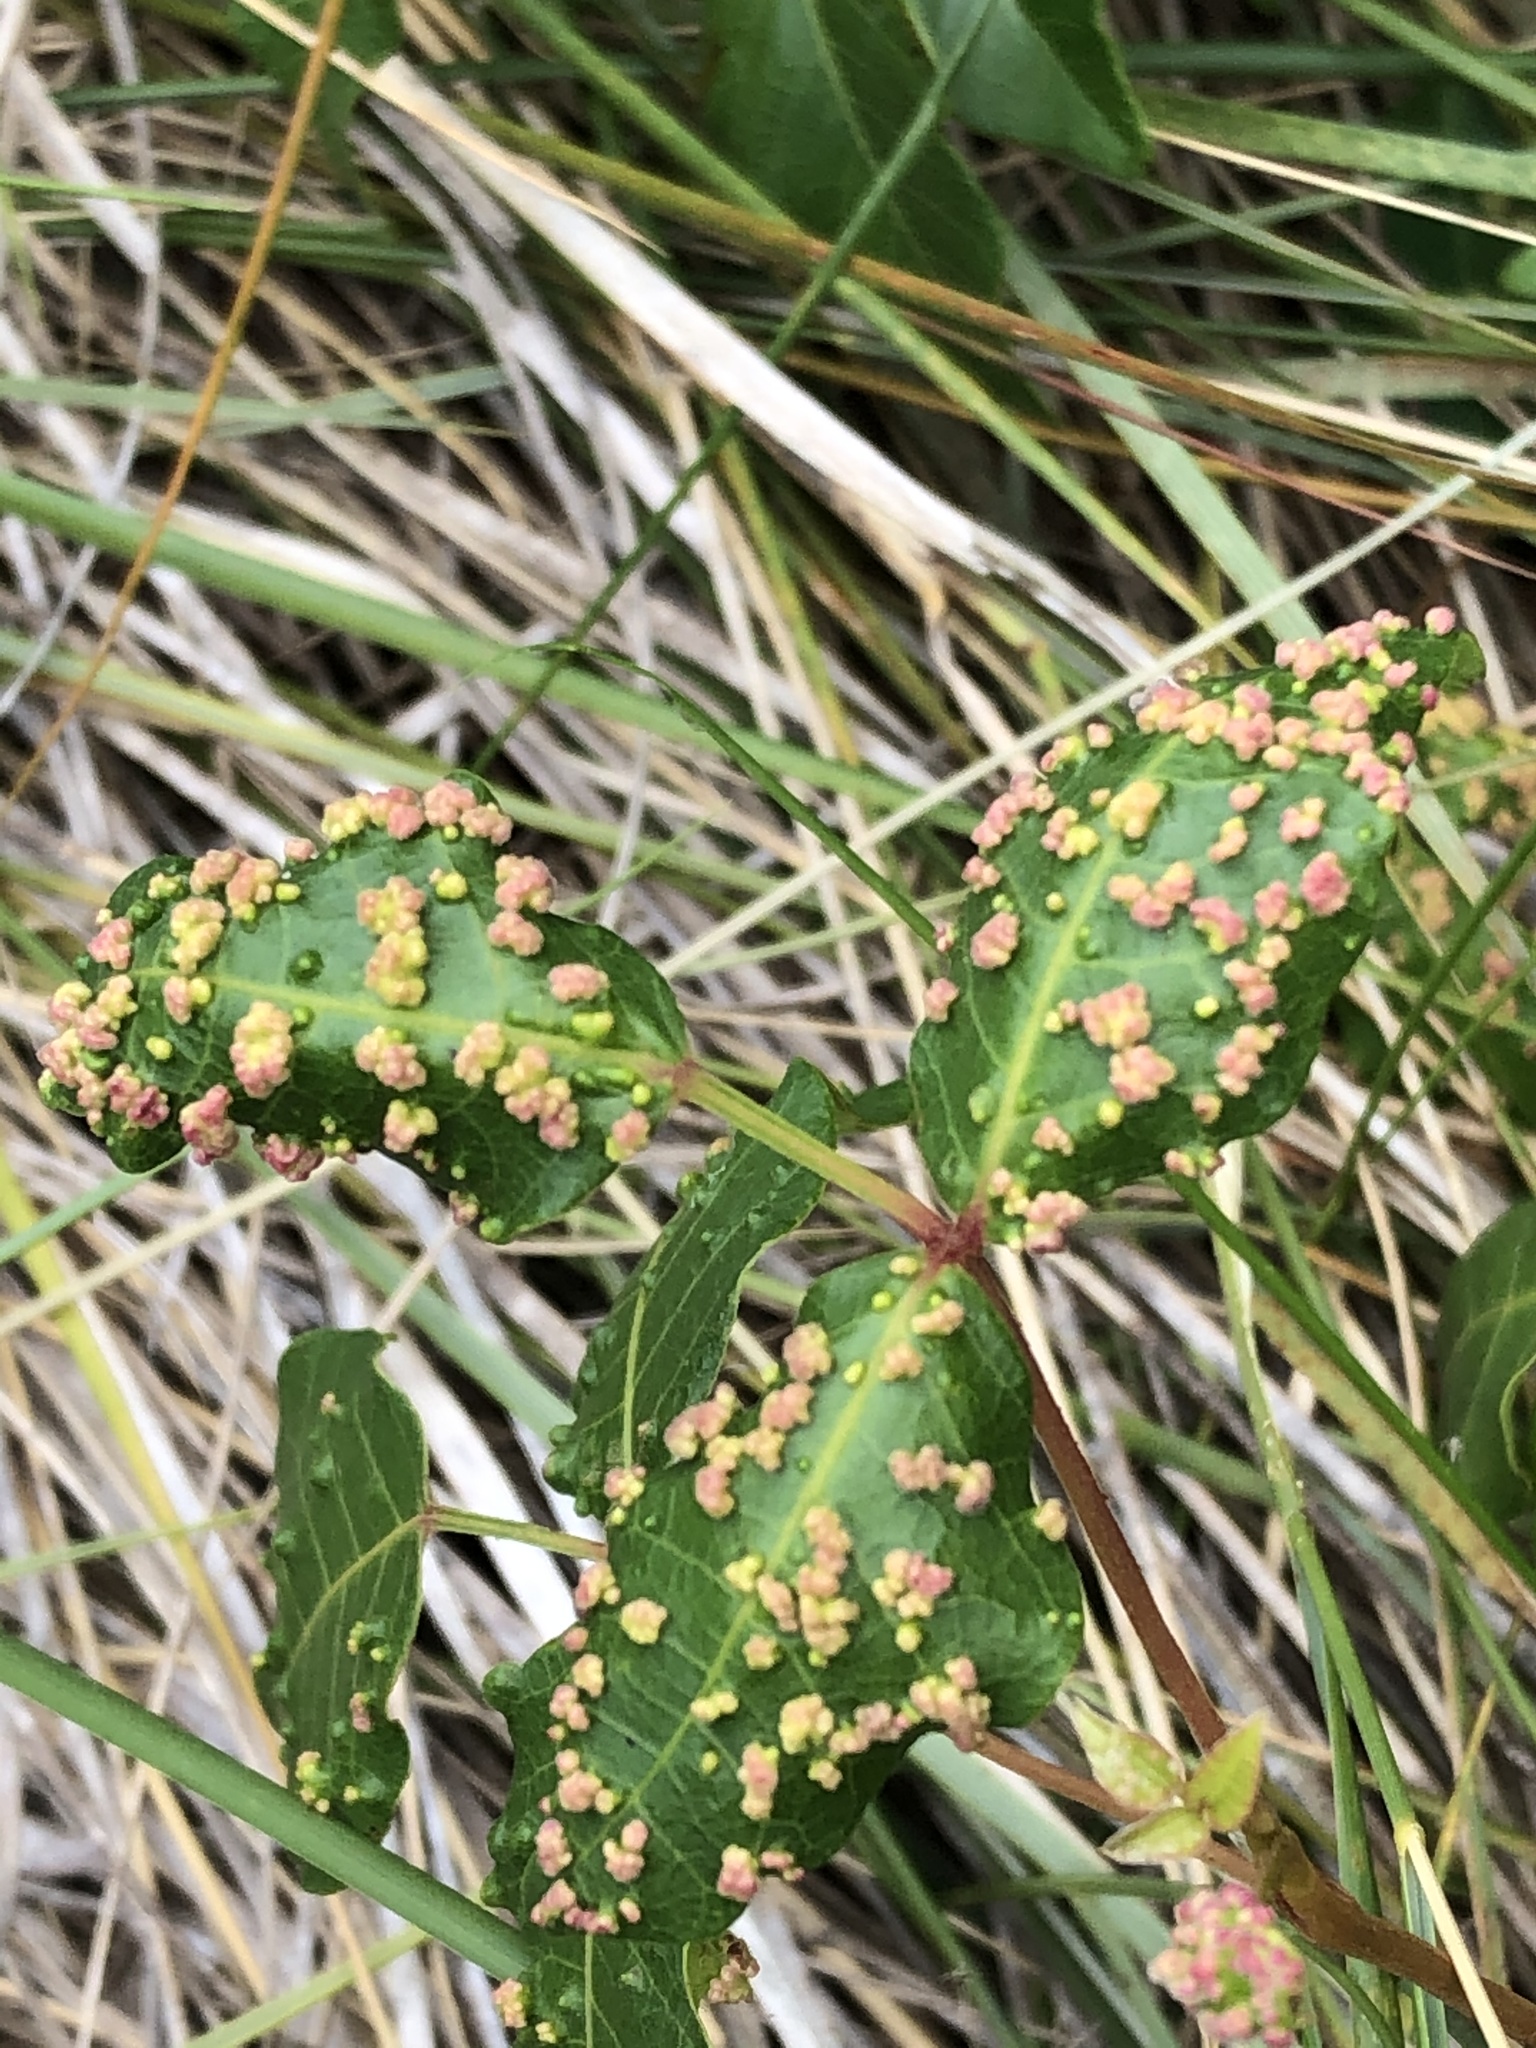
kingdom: Animalia
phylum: Arthropoda
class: Arachnida
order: Trombidiformes
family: Eriophyidae
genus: Aculops
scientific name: Aculops
